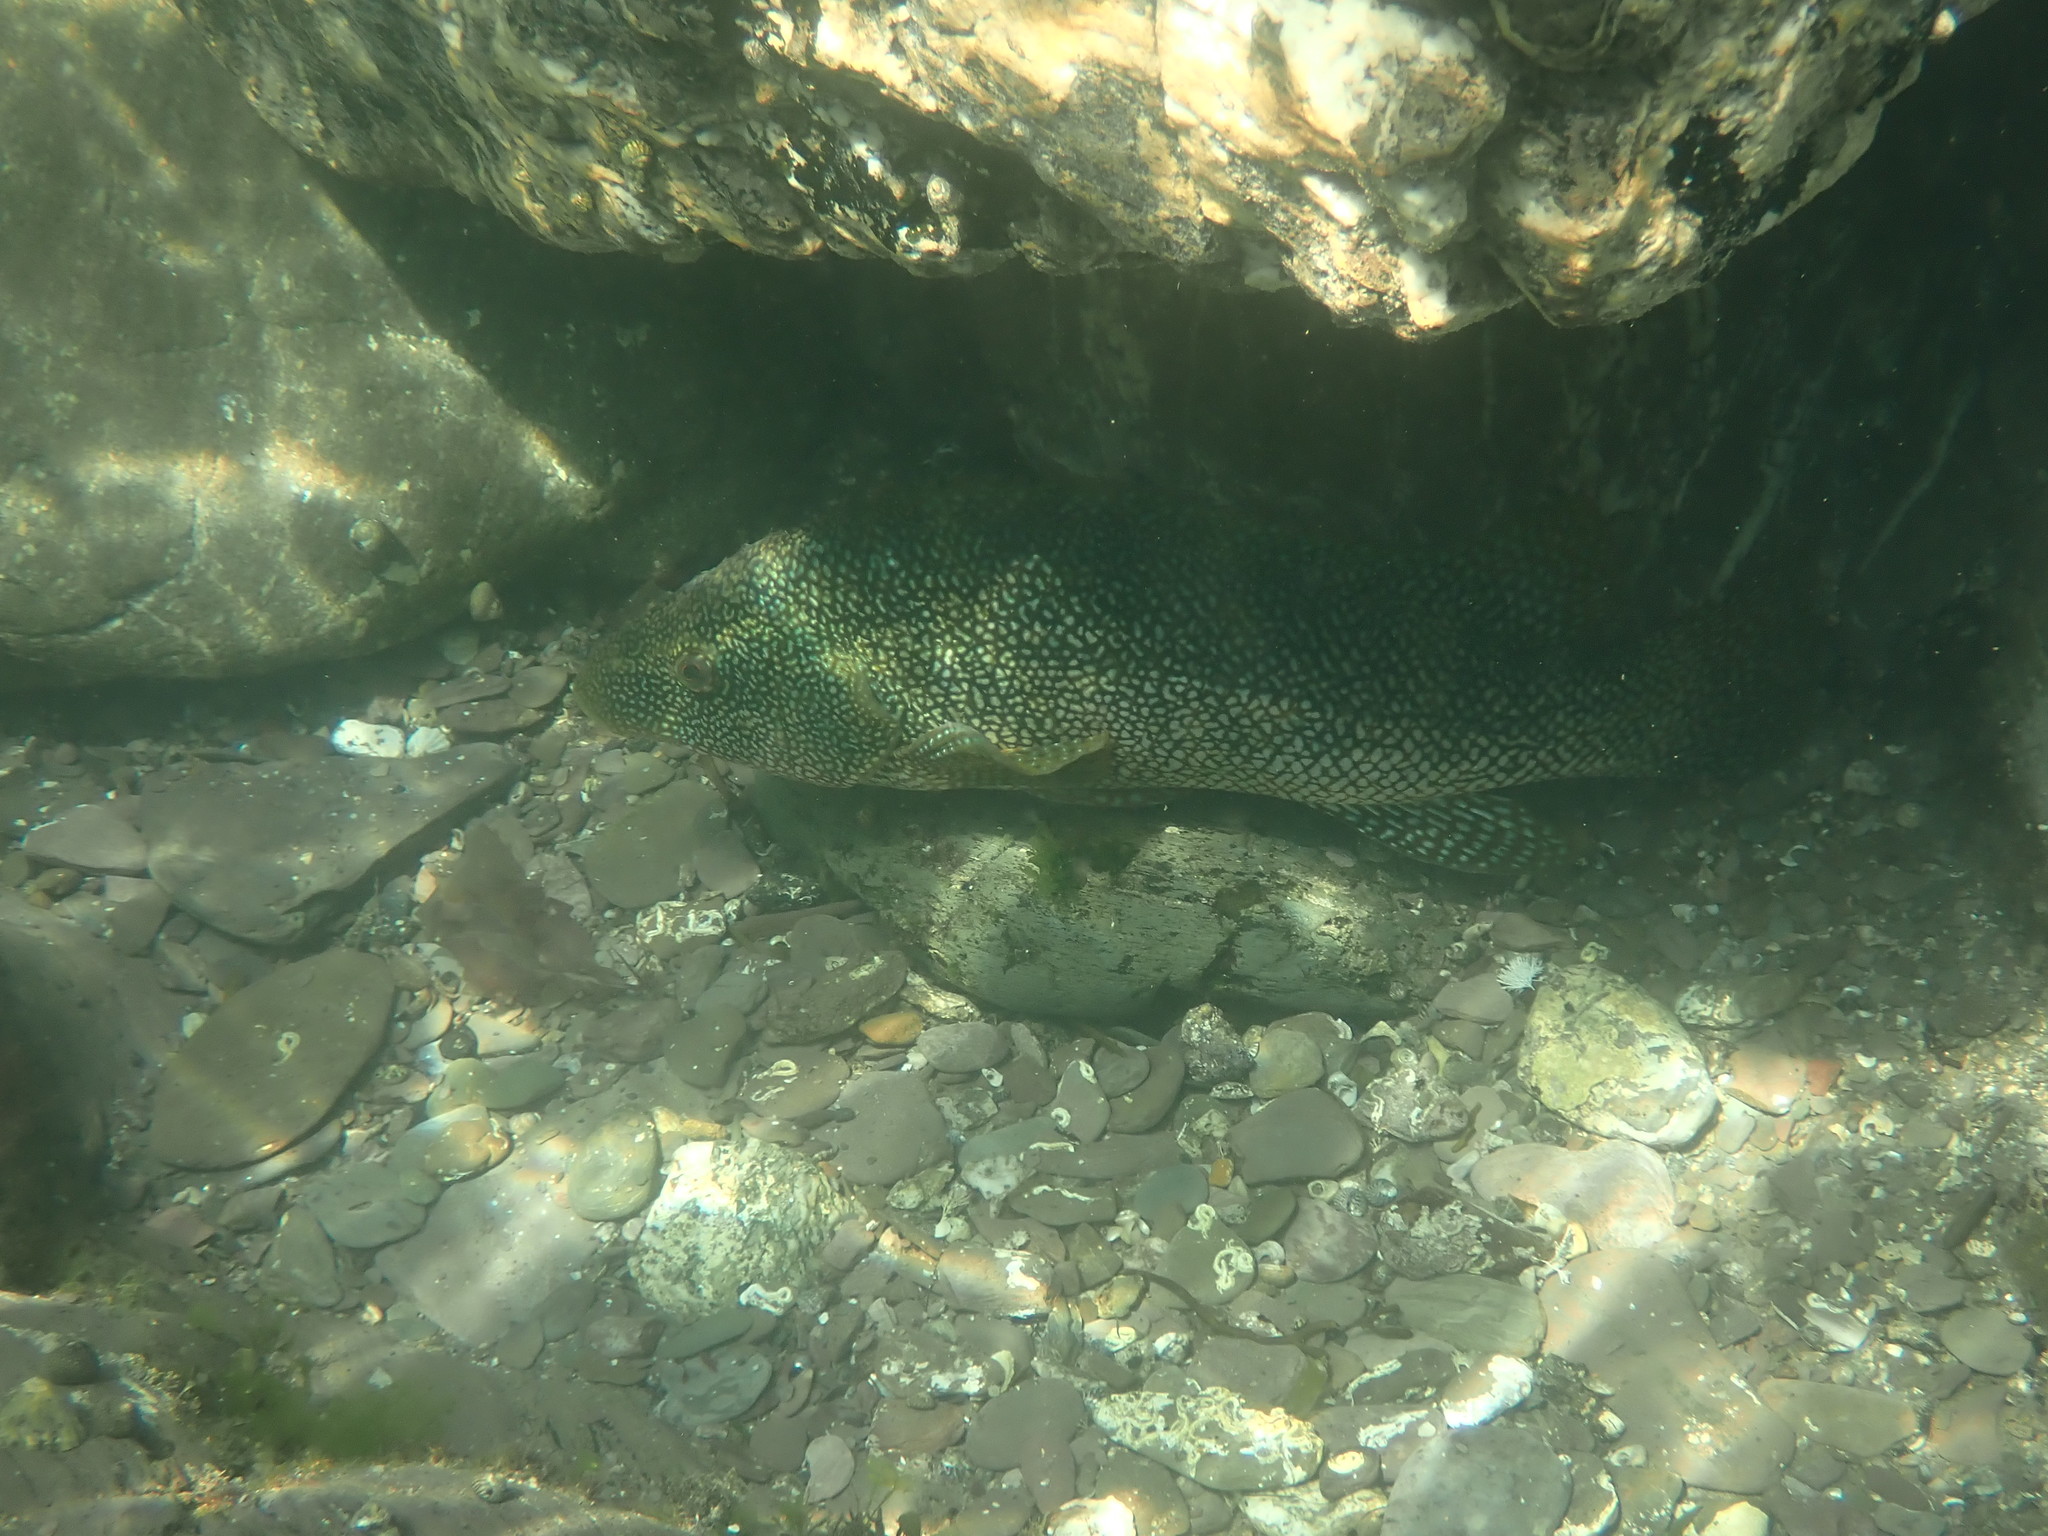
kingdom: Animalia
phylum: Chordata
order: Perciformes
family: Labridae
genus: Labrus
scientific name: Labrus bergylta
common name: Ballan wrasse
